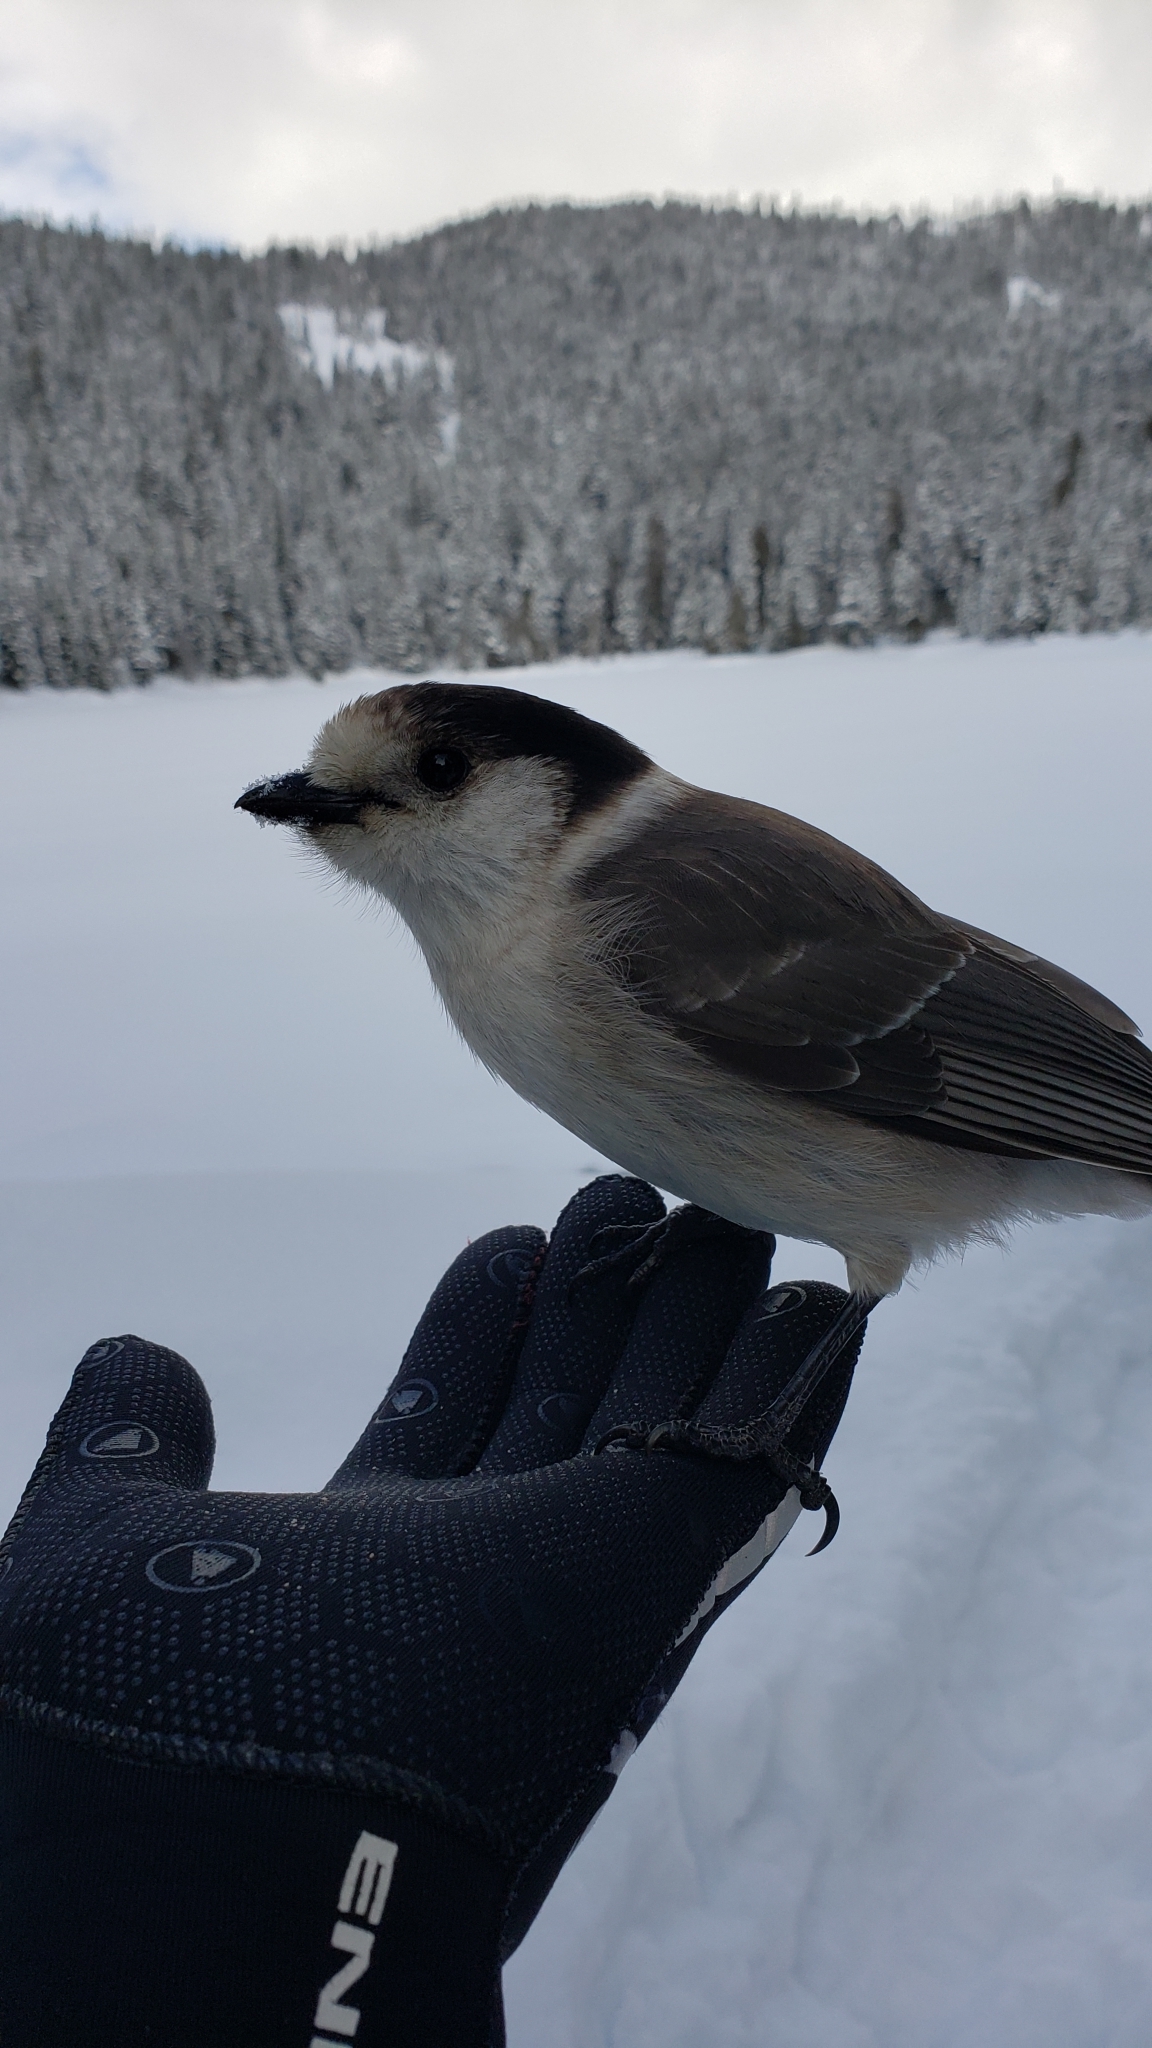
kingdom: Animalia
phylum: Chordata
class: Aves
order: Passeriformes
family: Corvidae
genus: Perisoreus
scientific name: Perisoreus canadensis
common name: Gray jay
